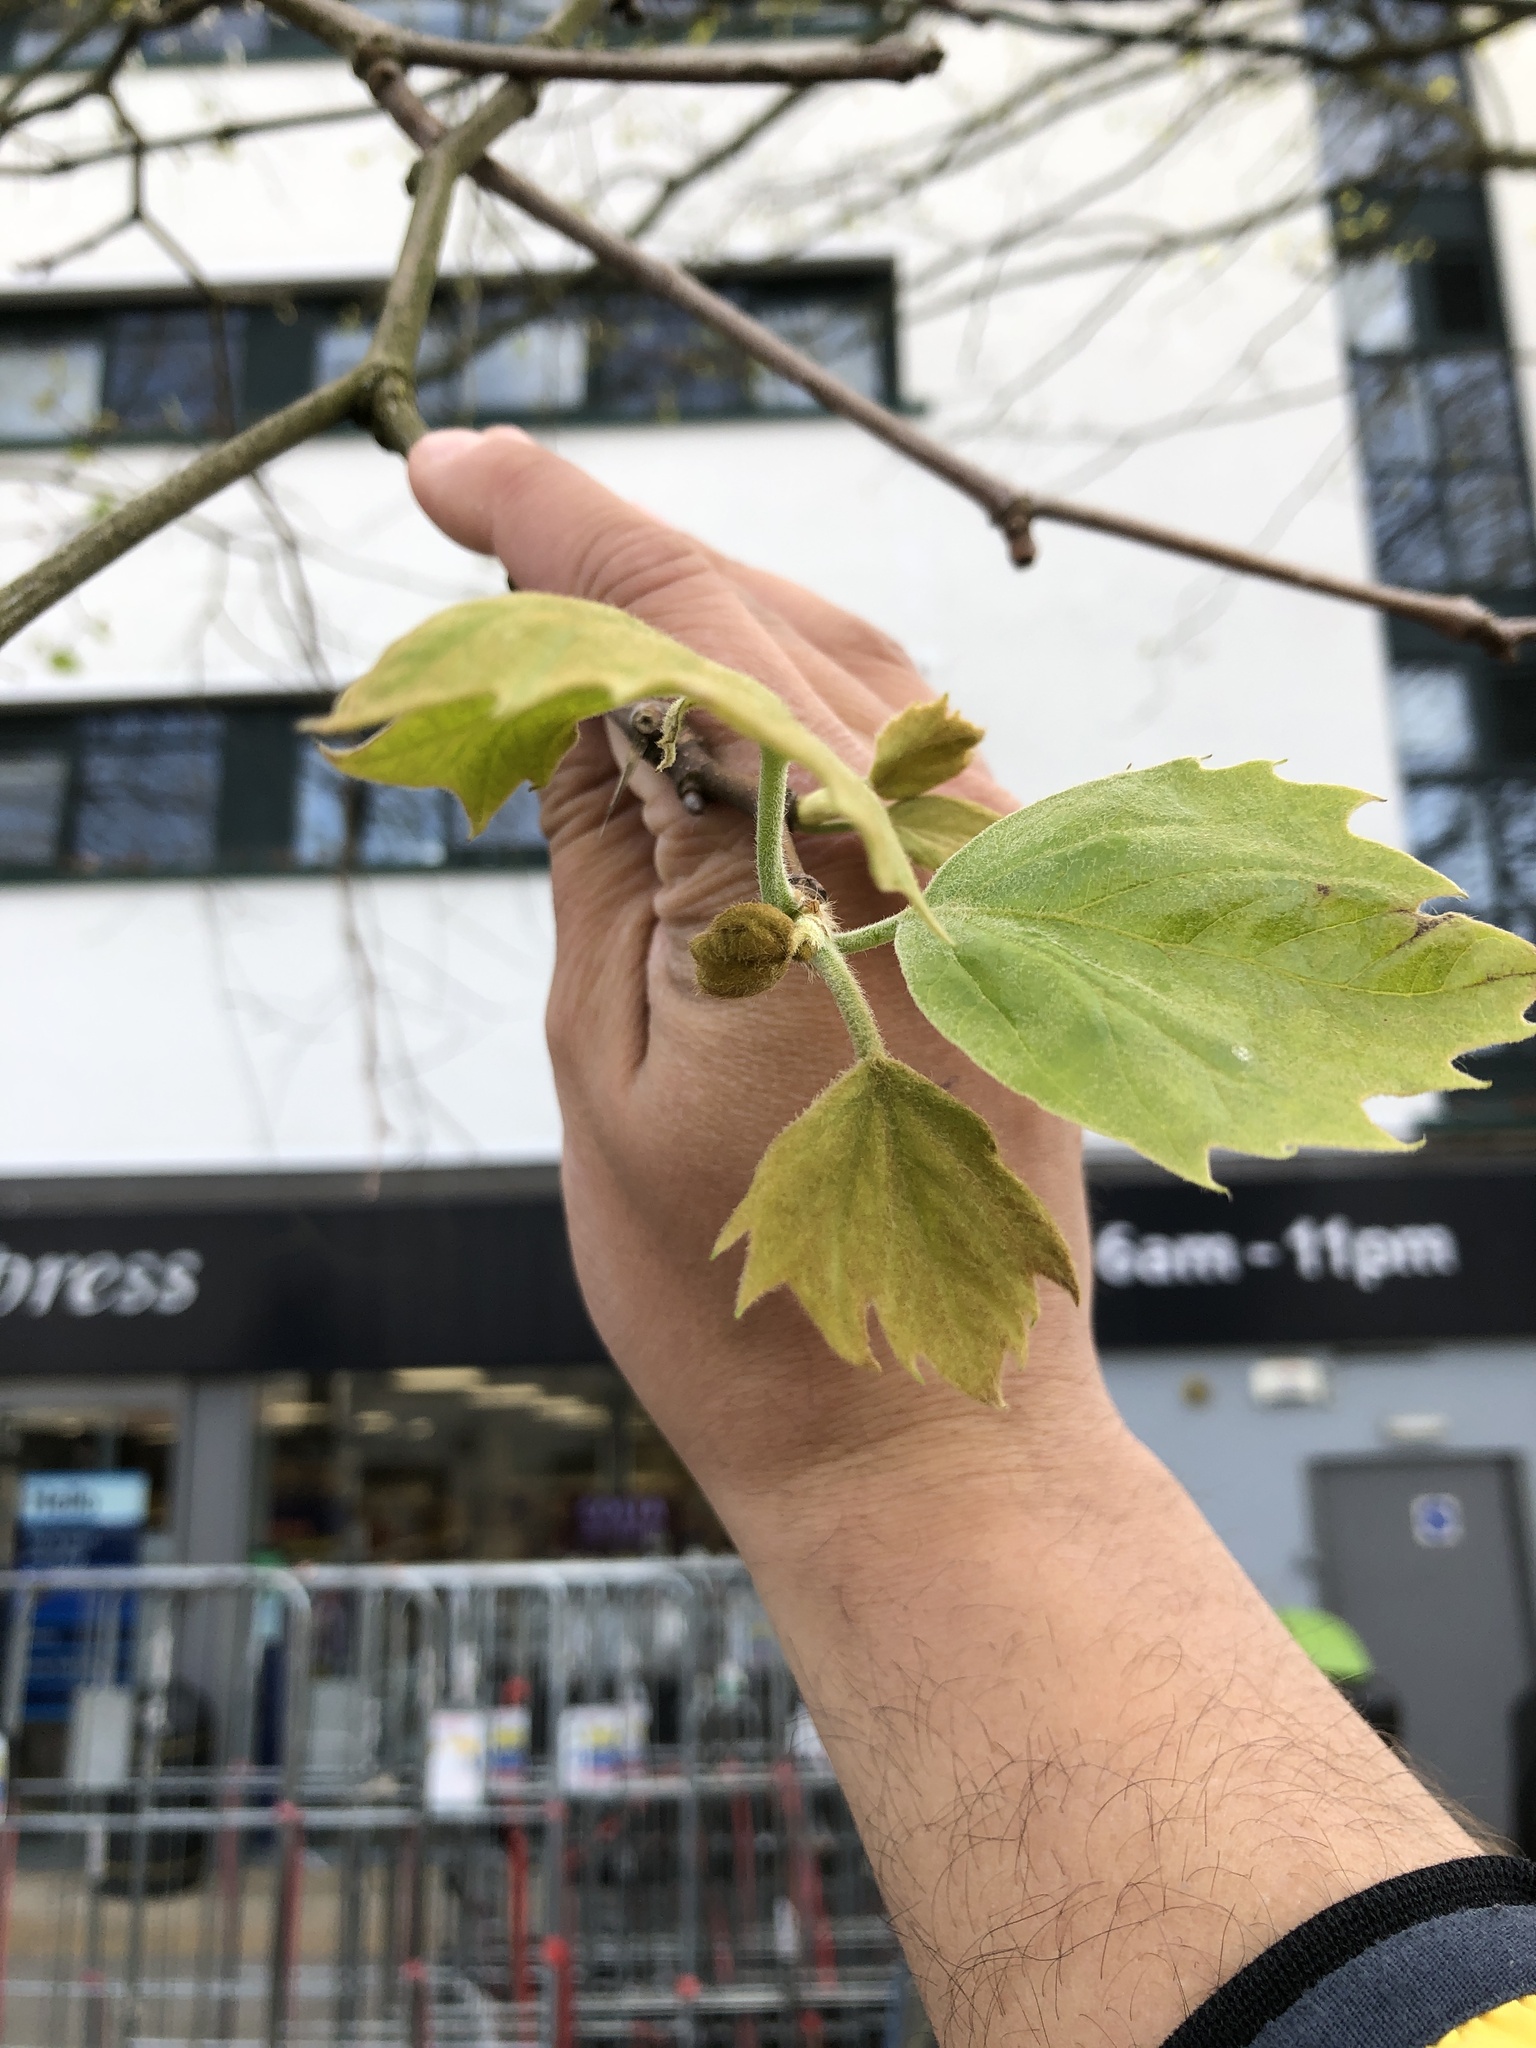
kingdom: Plantae
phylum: Tracheophyta
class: Magnoliopsida
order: Proteales
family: Platanaceae
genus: Platanus
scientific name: Platanus hispanica
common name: London plane
